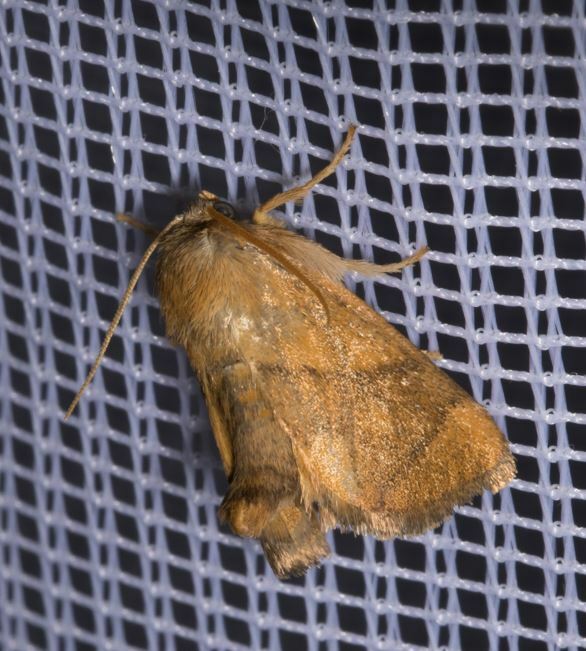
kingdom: Animalia
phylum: Arthropoda
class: Insecta
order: Lepidoptera
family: Limacodidae
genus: Apoda
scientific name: Apoda limacodes
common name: Festoon
